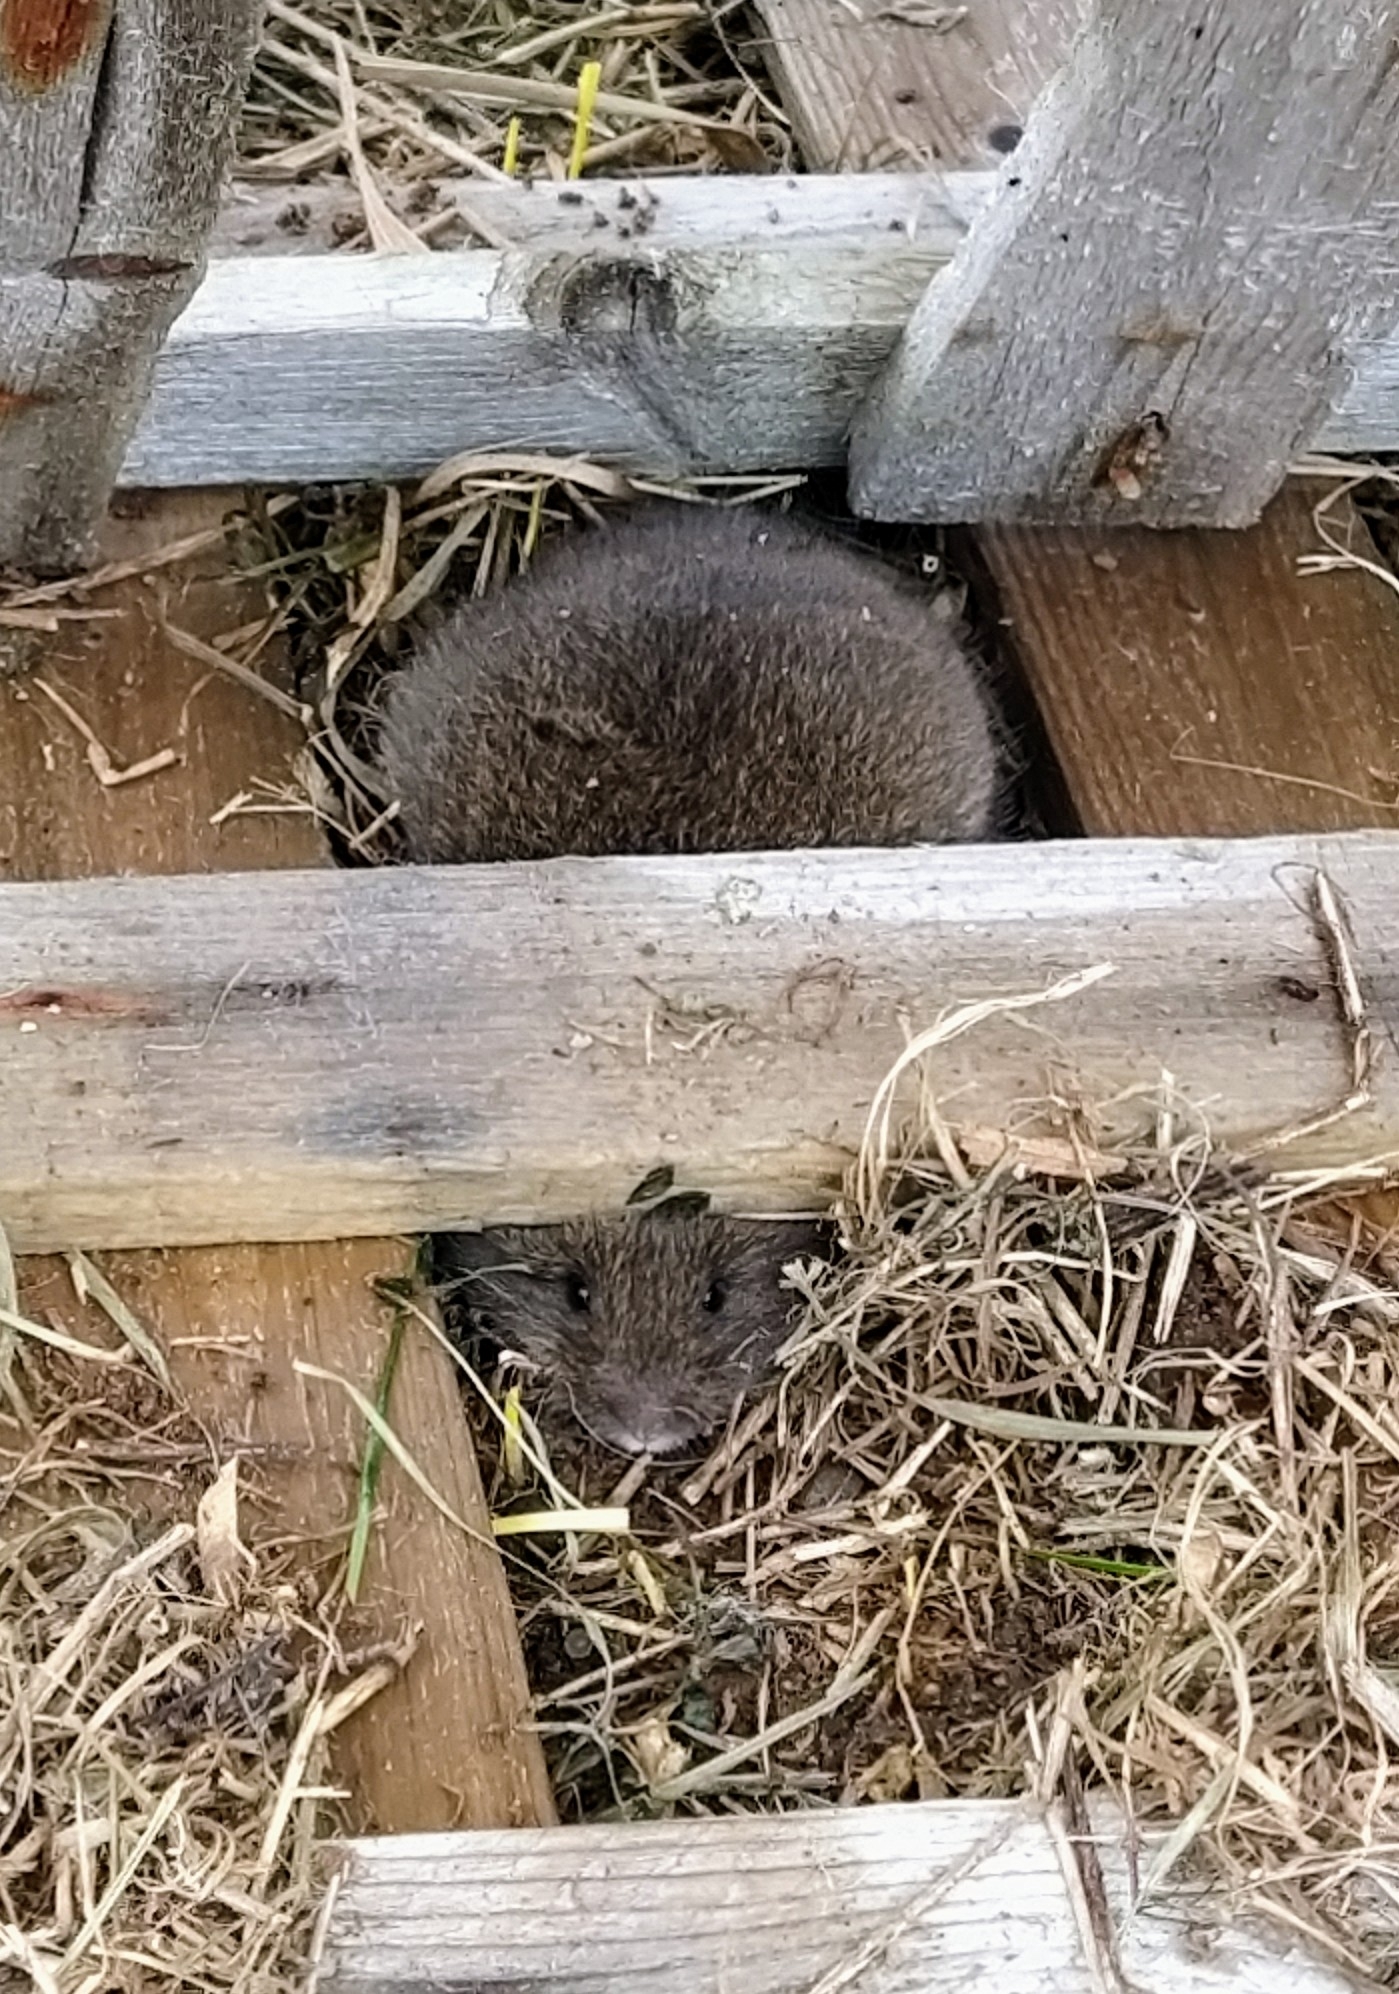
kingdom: Animalia
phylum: Chordata
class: Mammalia
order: Rodentia
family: Cricetidae
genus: Microtus
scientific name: Microtus pennsylvanicus
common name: Meadow vole
